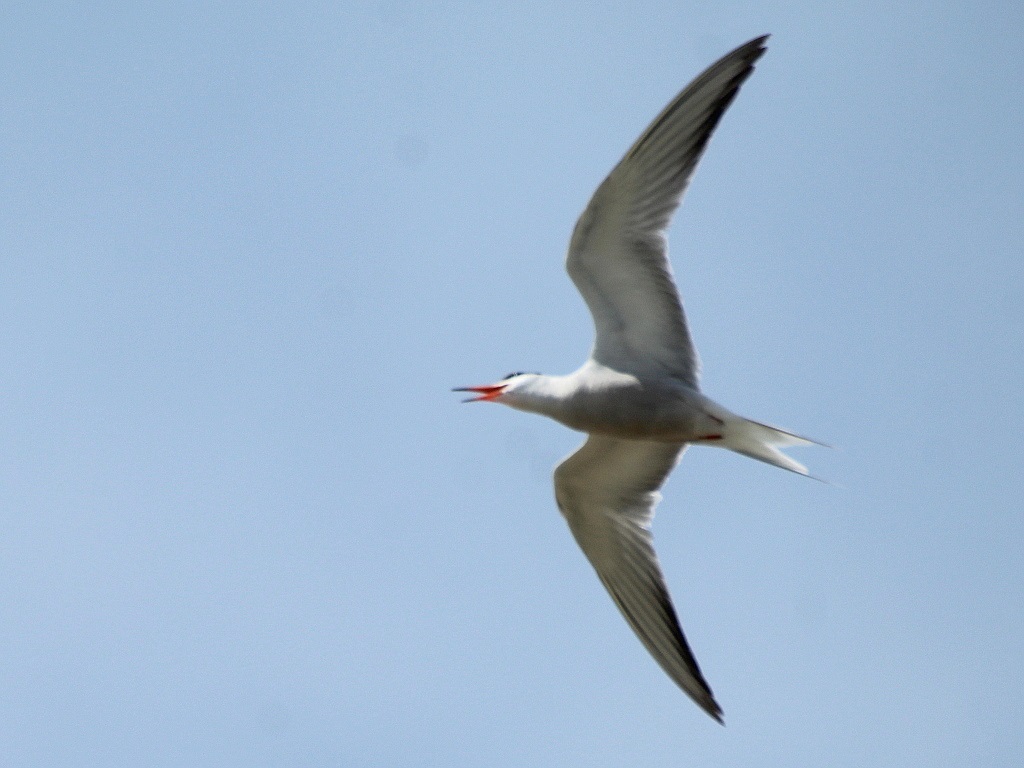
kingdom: Animalia
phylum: Chordata
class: Aves
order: Charadriiformes
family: Laridae
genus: Sterna
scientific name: Sterna hirundo
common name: Common tern
